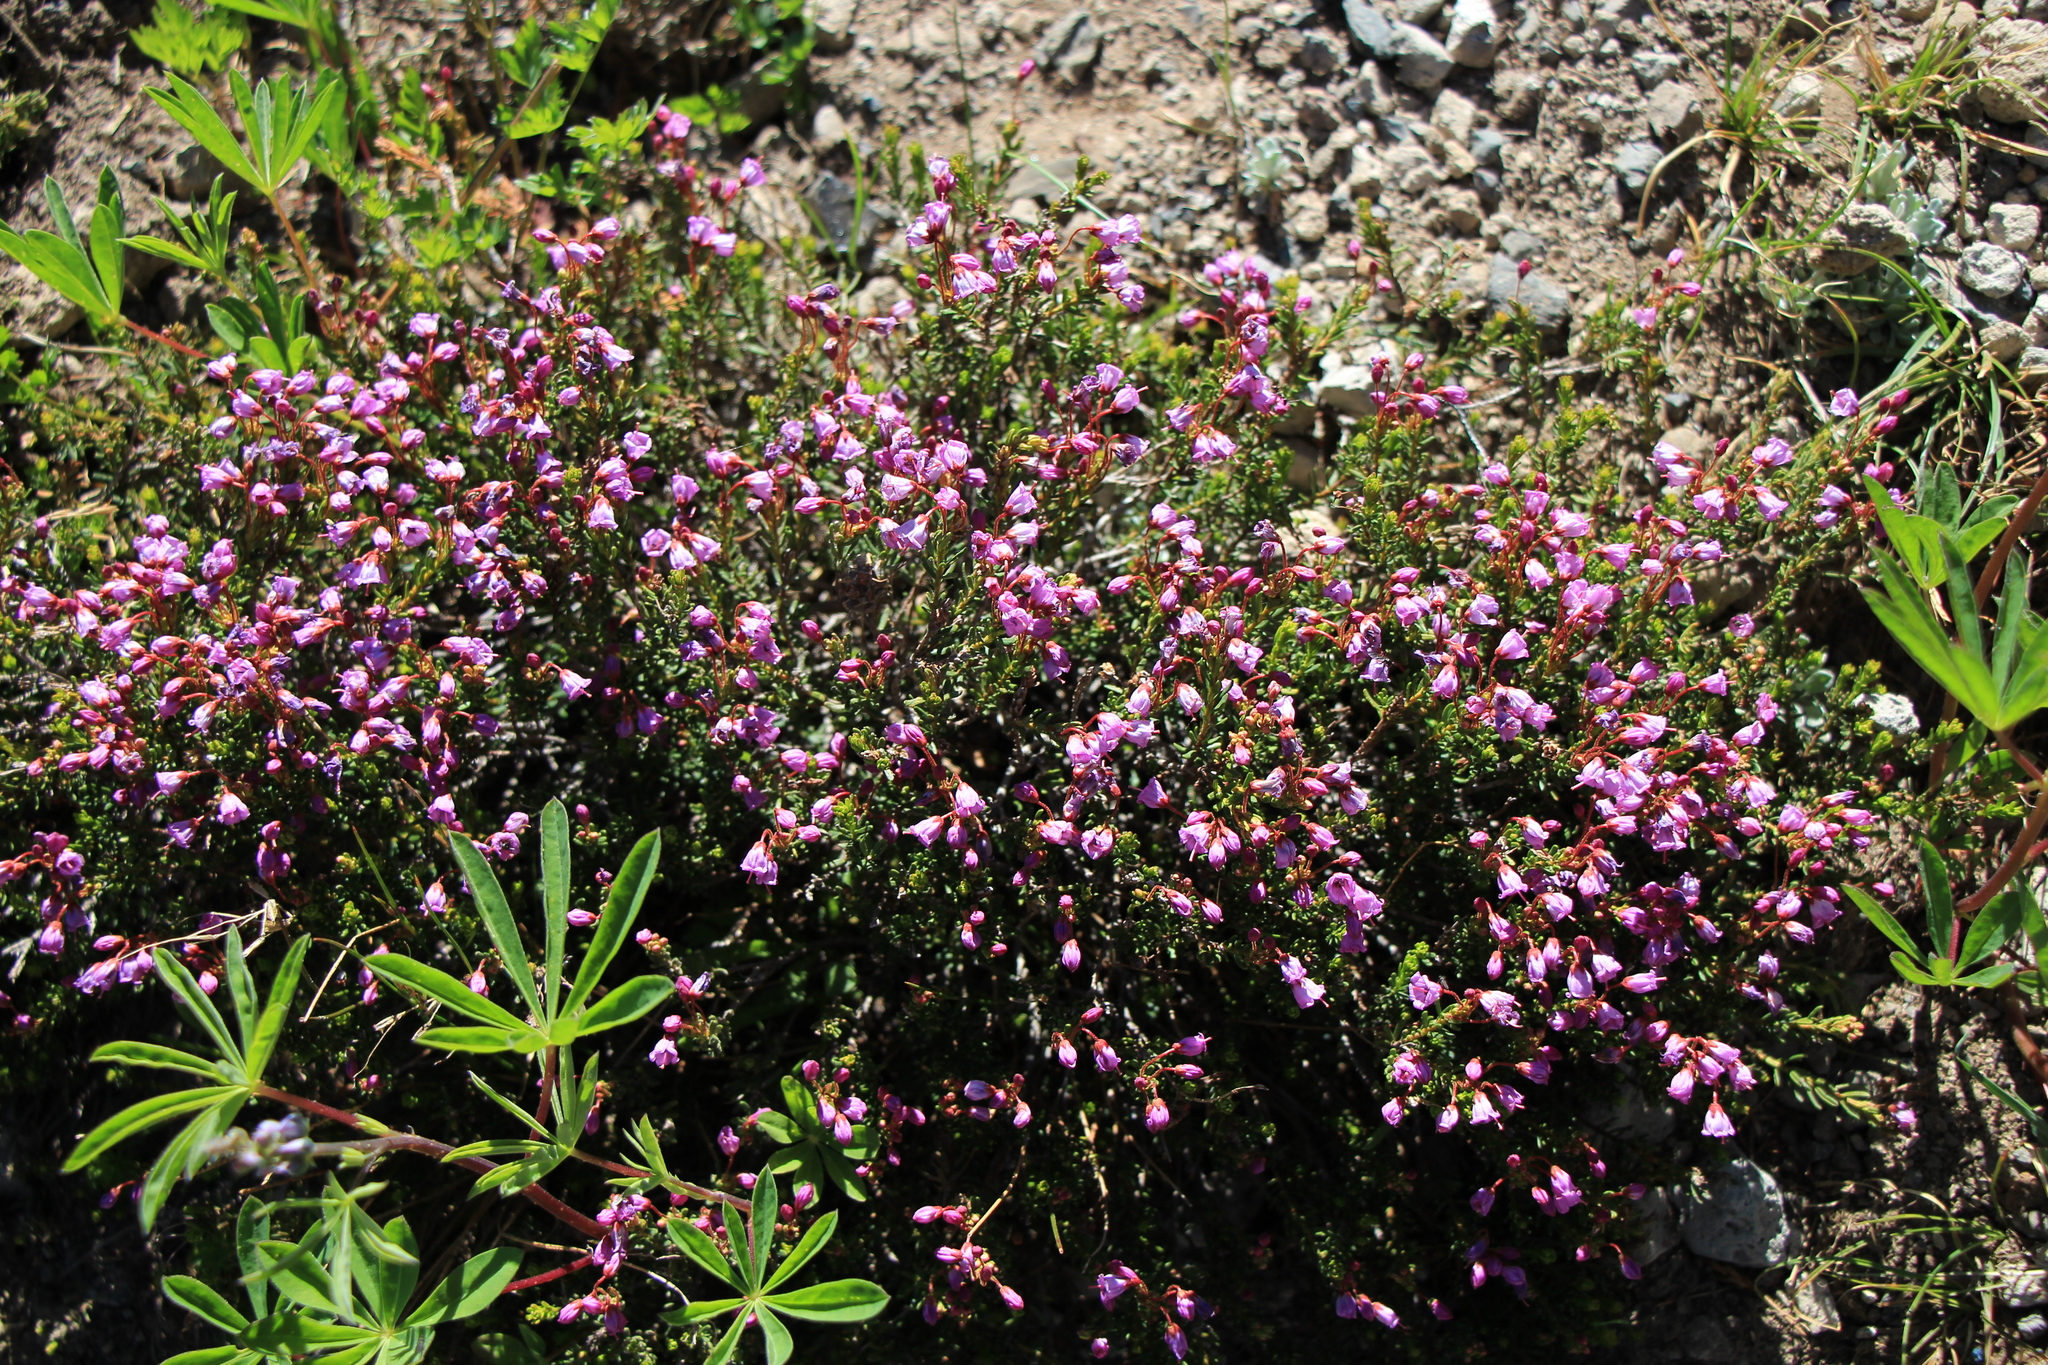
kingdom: Plantae
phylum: Tracheophyta
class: Magnoliopsida
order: Ericales
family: Ericaceae
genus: Phyllodoce
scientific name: Phyllodoce empetriformis
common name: Pink mountain heather
